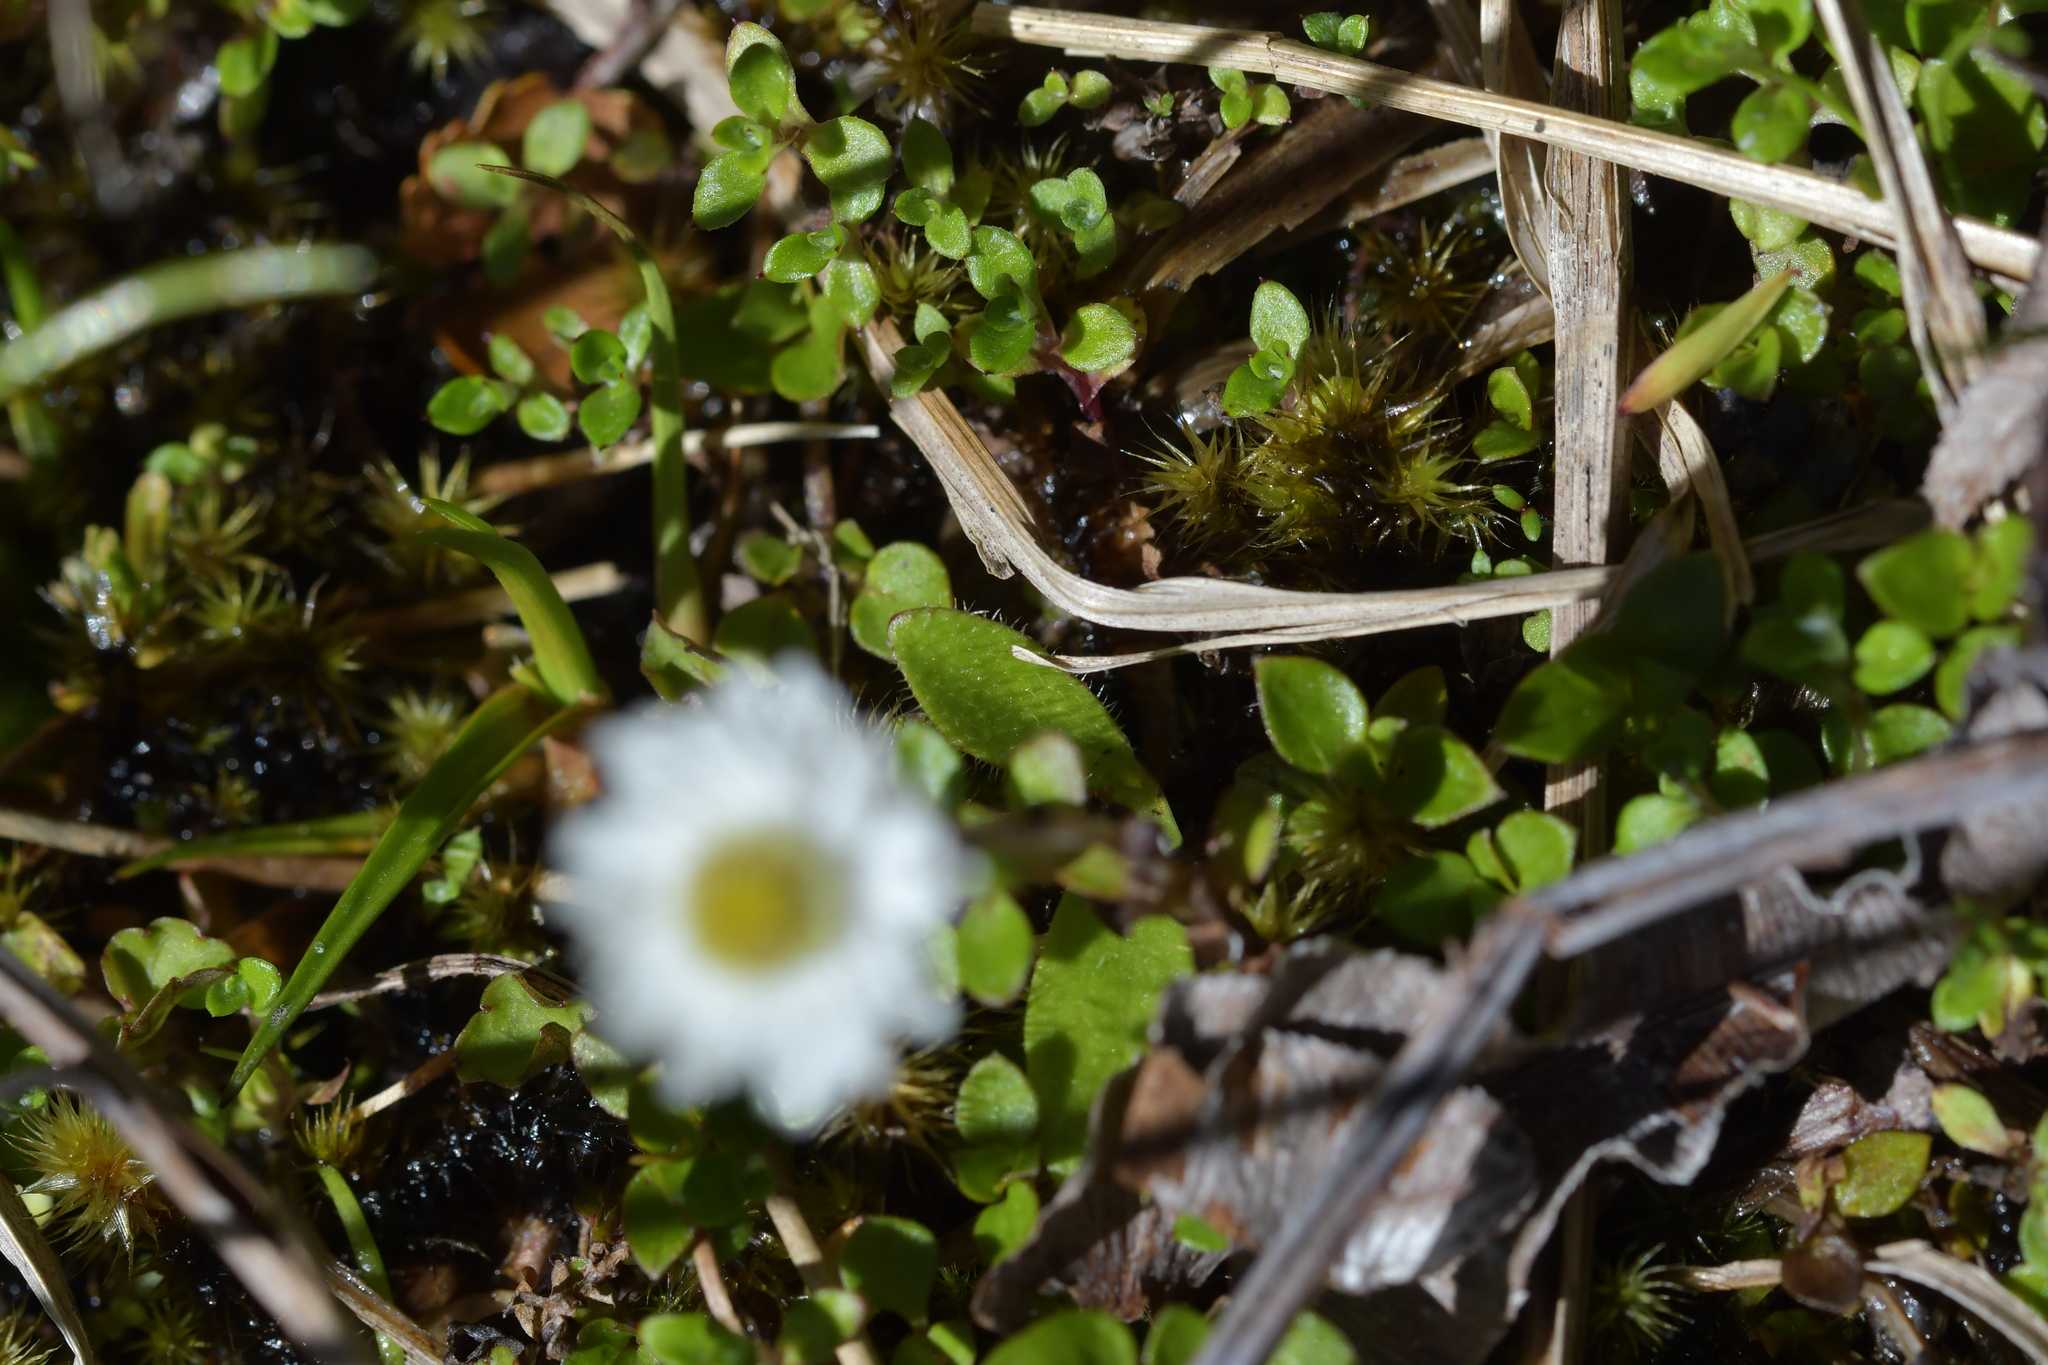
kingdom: Plantae
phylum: Tracheophyta
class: Magnoliopsida
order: Asterales
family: Asteraceae
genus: Anaphalioides
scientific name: Anaphalioides alpina
